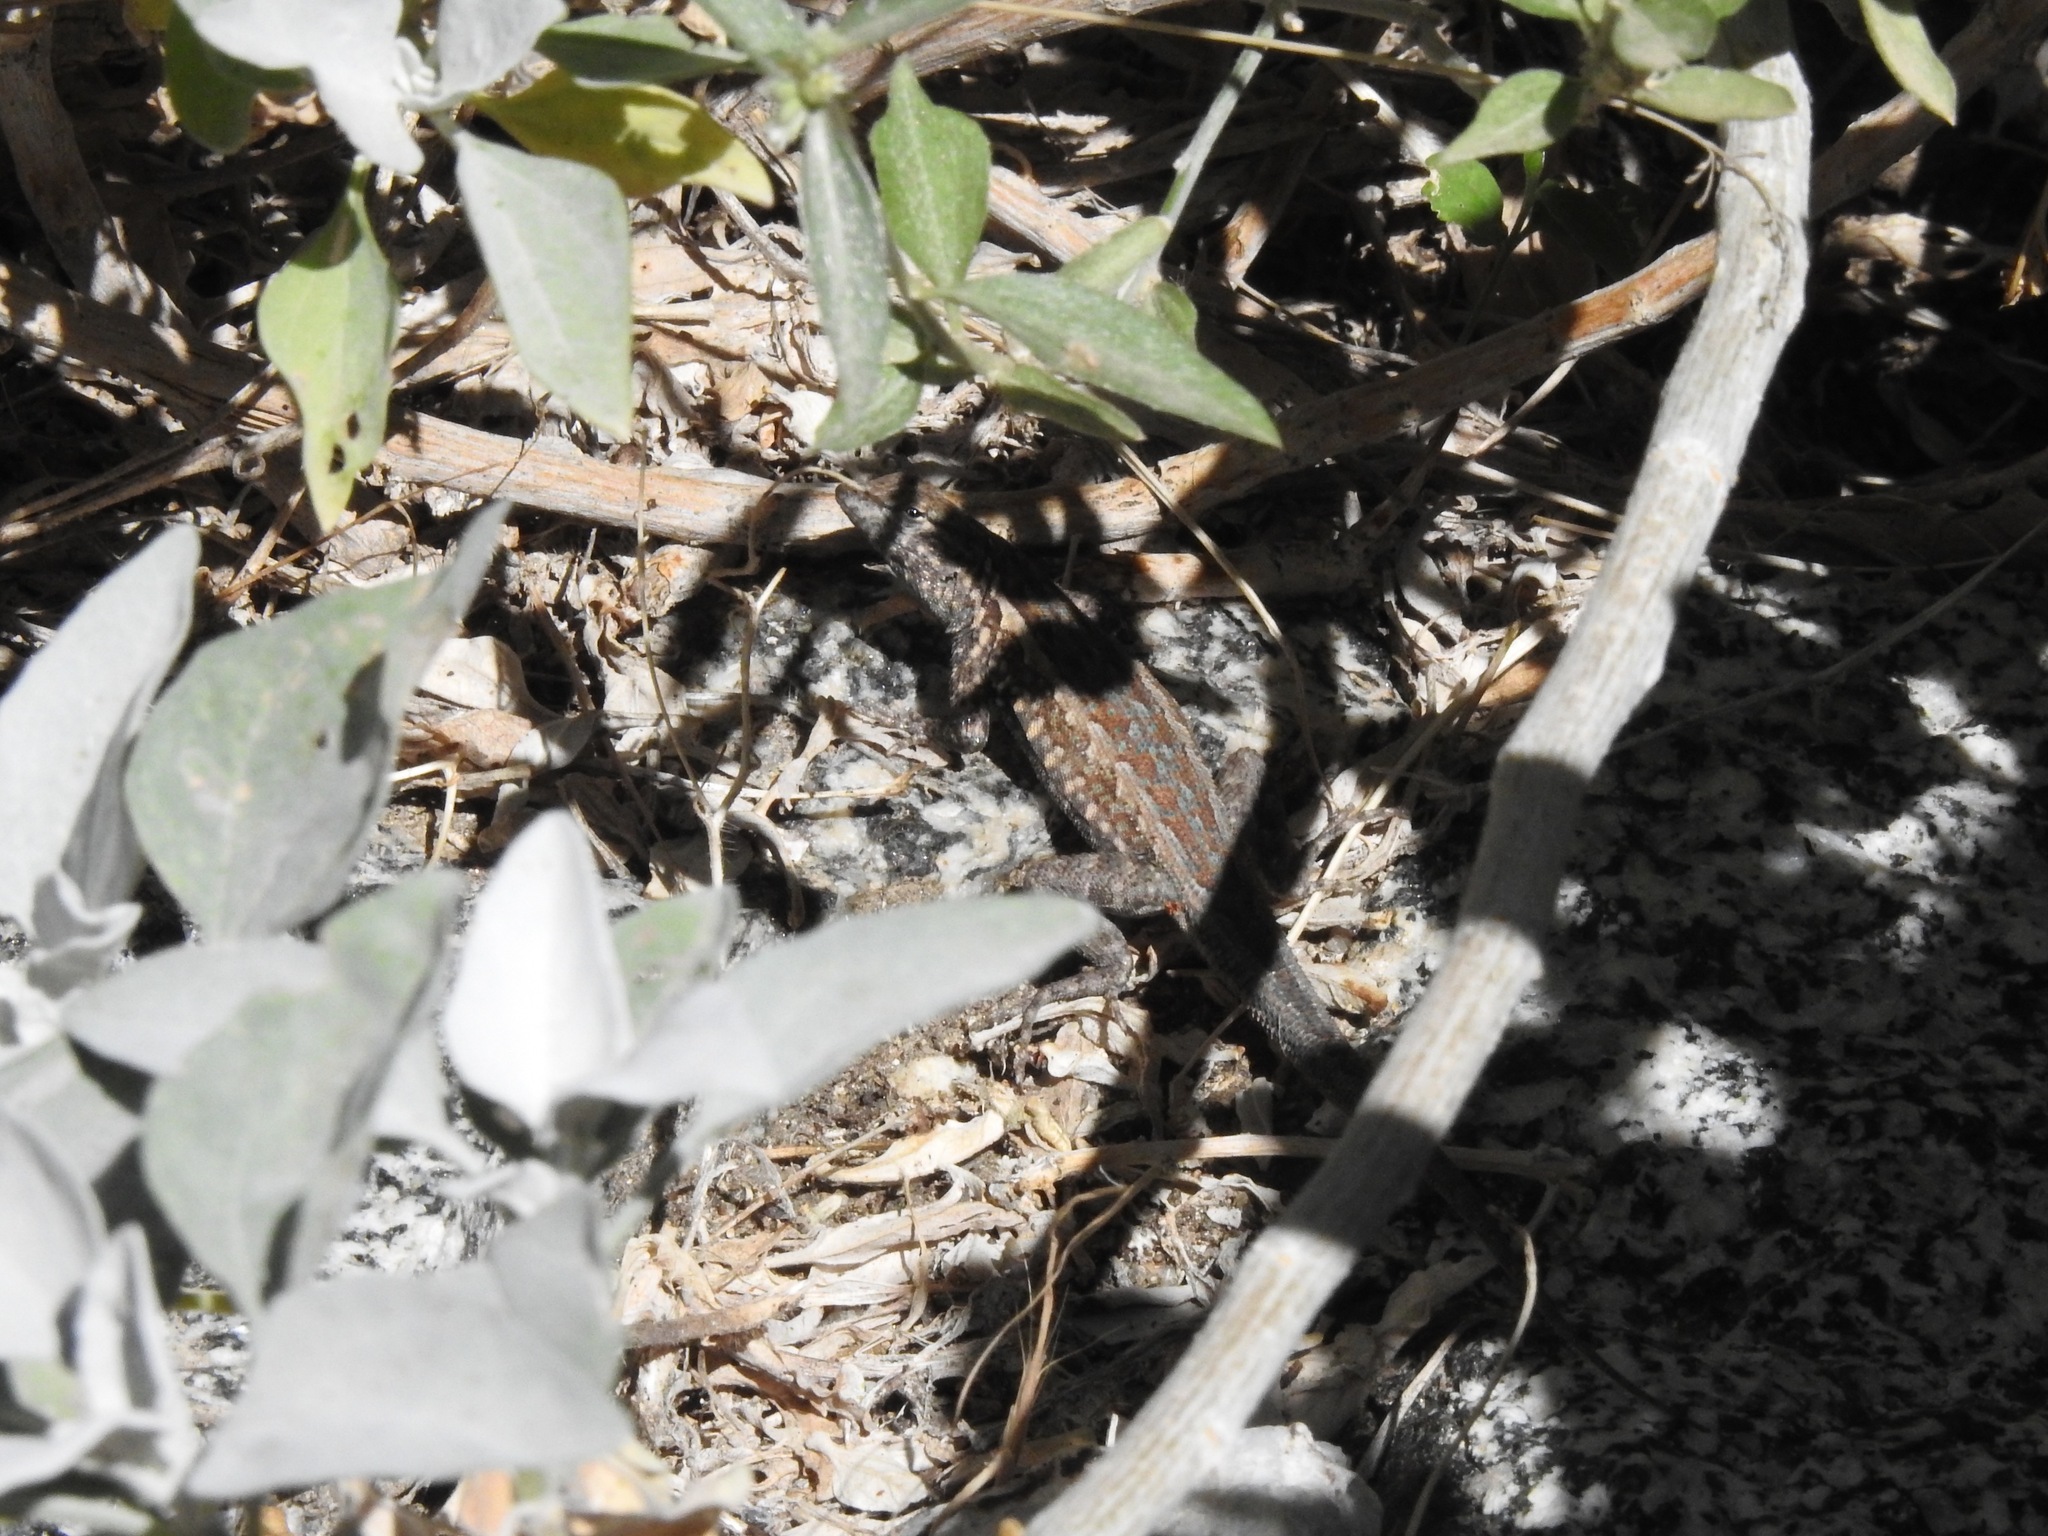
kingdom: Animalia
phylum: Chordata
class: Squamata
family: Phrynosomatidae
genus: Uta
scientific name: Uta stansburiana
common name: Side-blotched lizard
